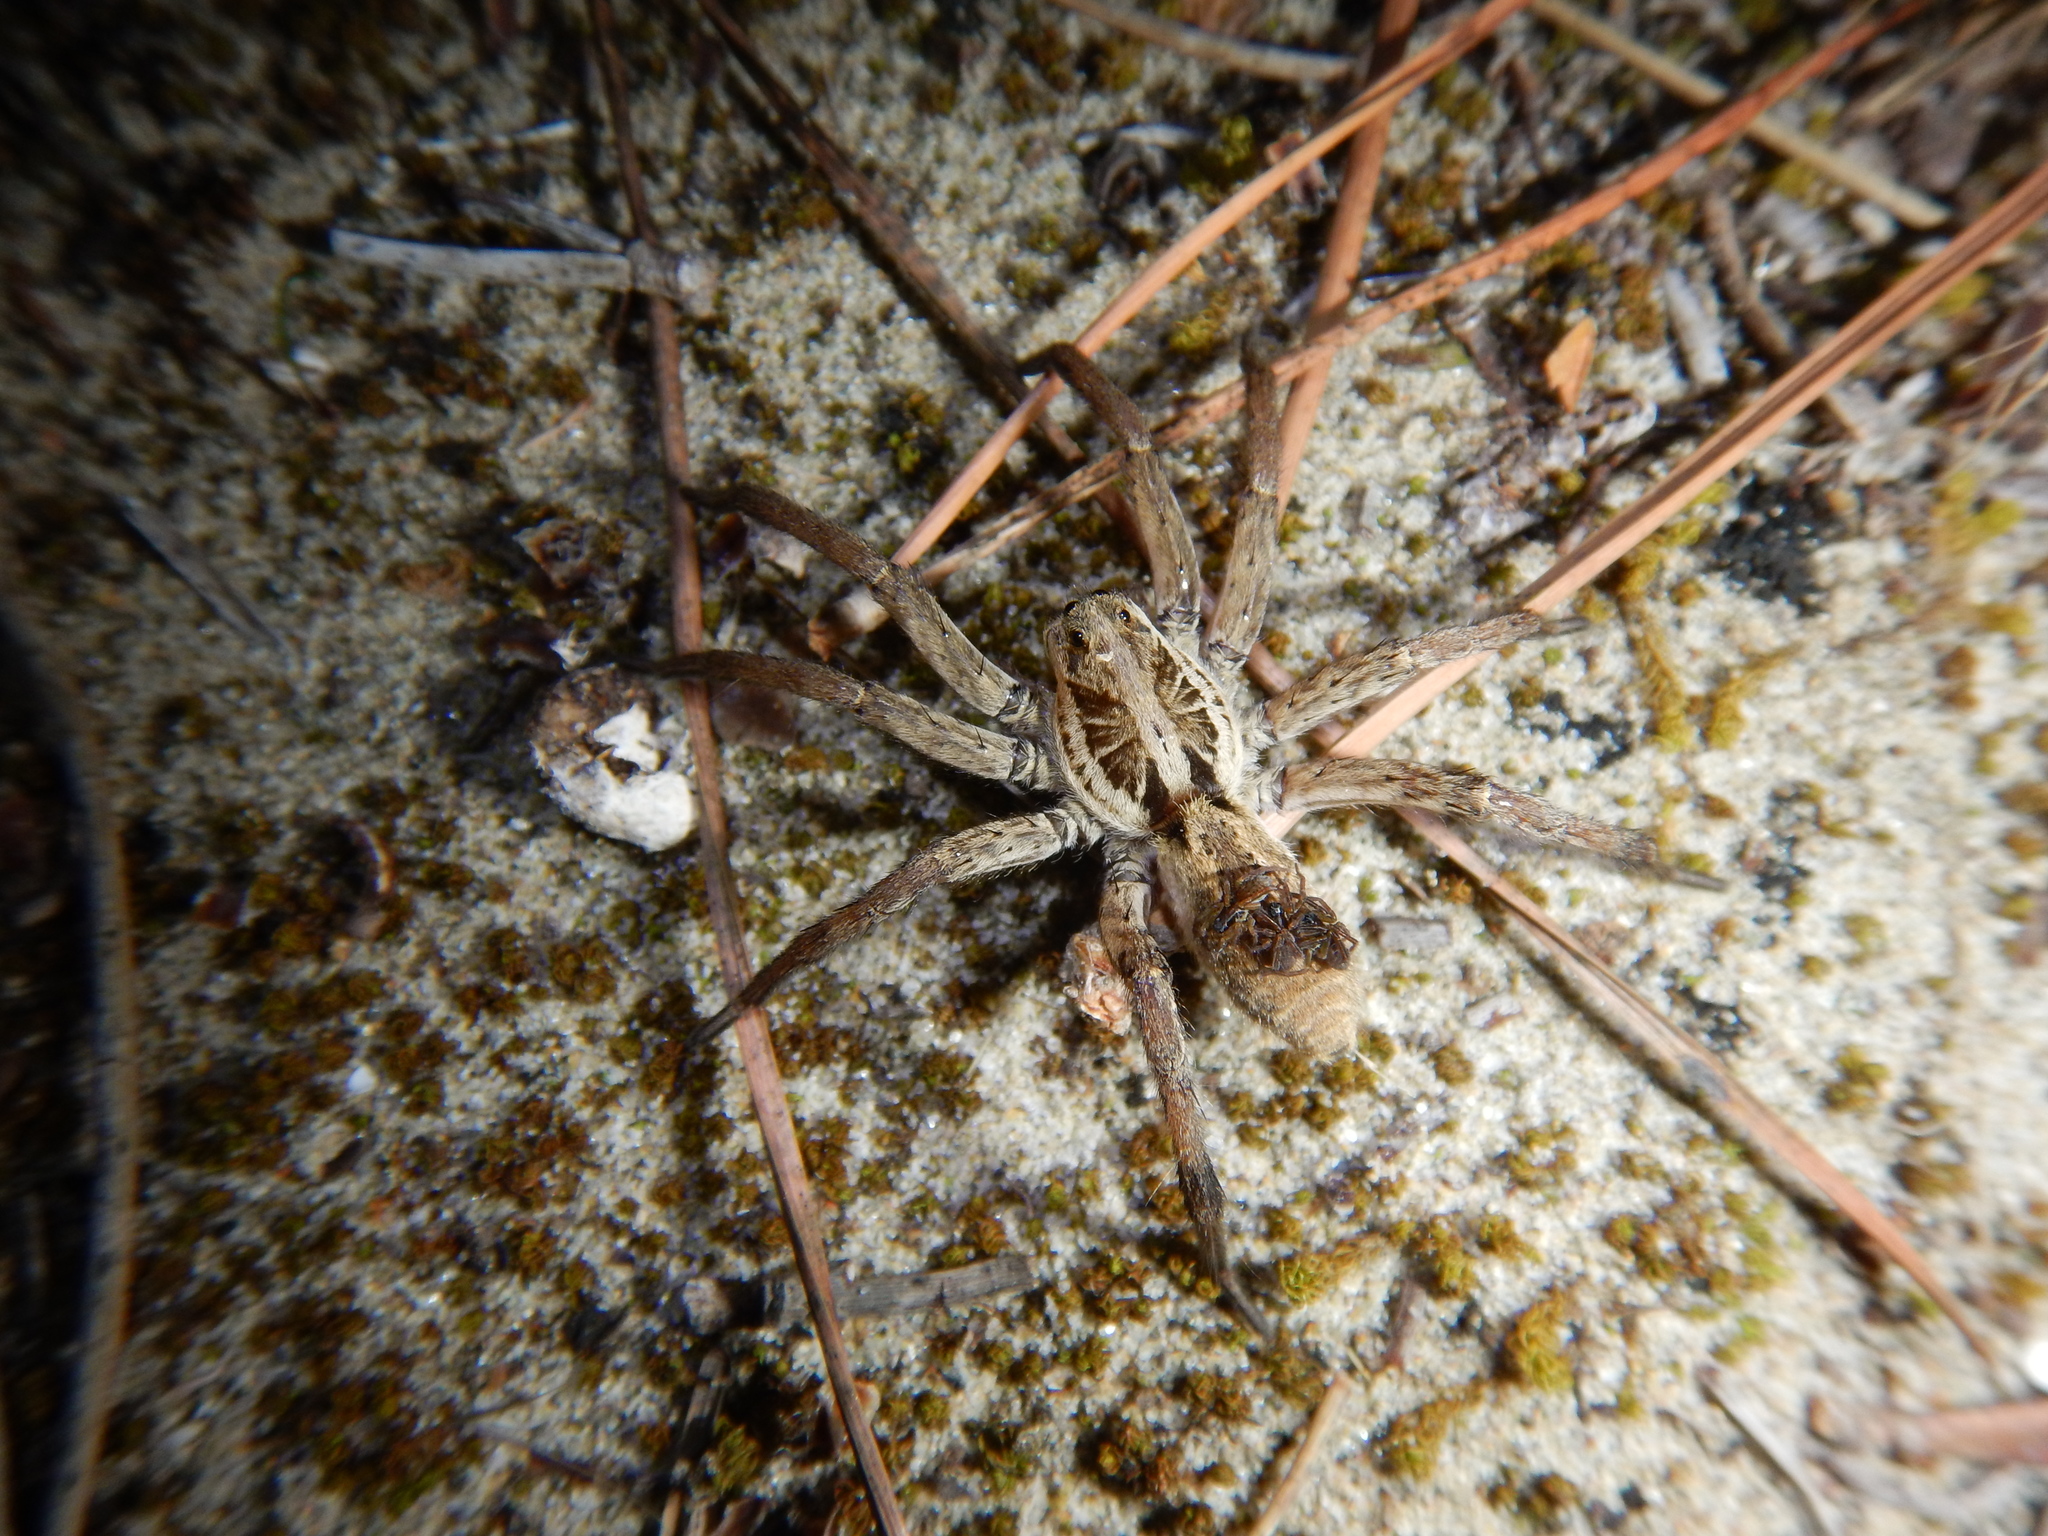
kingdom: Animalia
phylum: Arthropoda
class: Arachnida
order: Araneae
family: Lycosidae
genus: Hogna
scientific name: Hogna radiata
